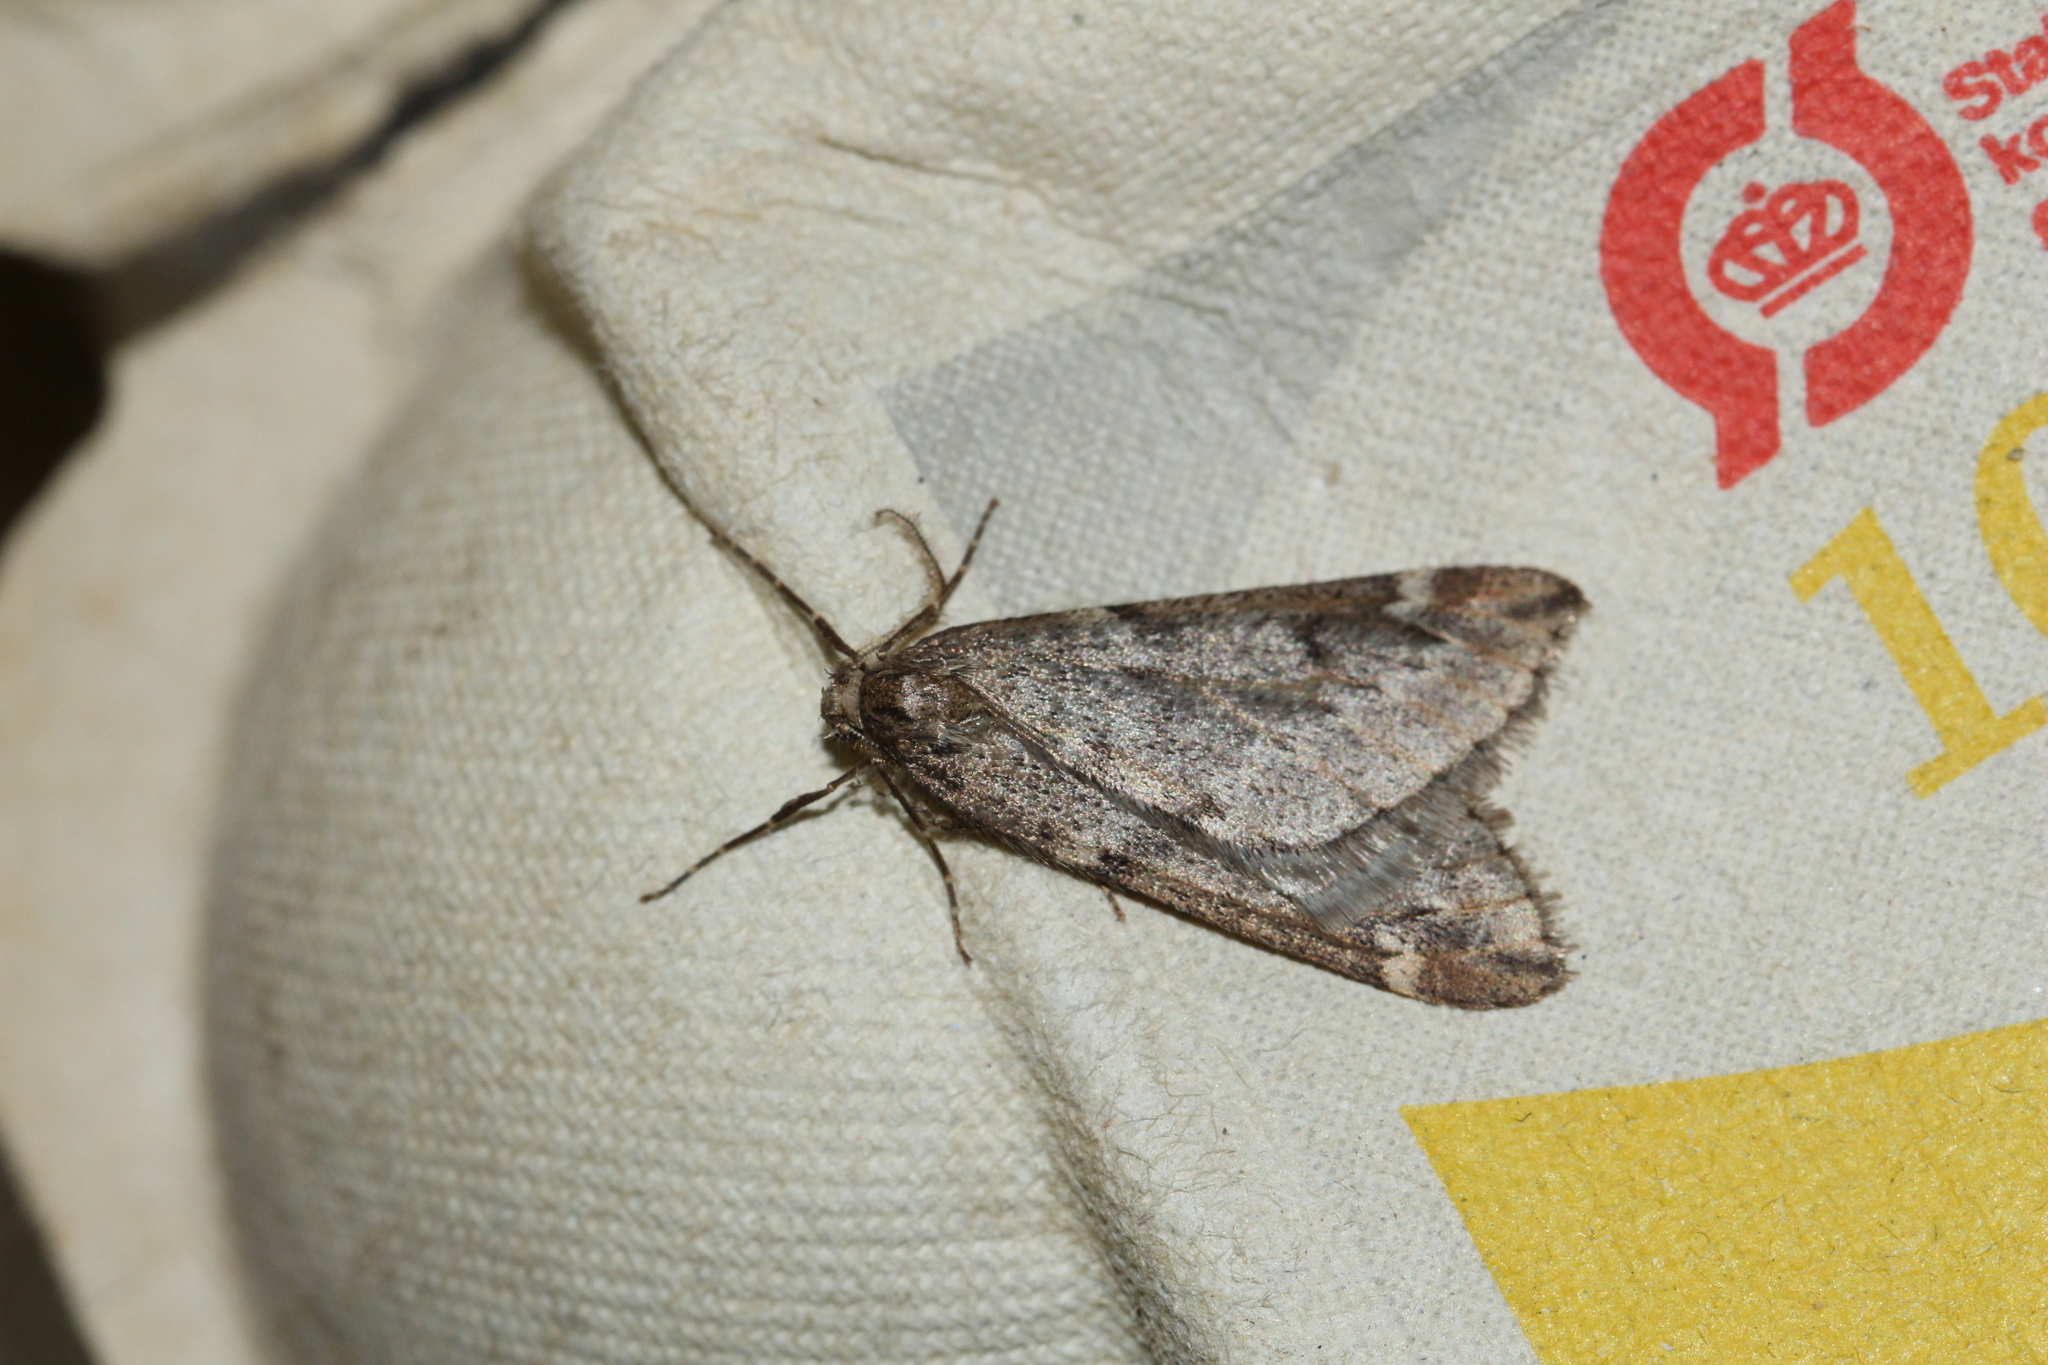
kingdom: Animalia
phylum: Arthropoda
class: Insecta
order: Lepidoptera
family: Geometridae
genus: Alsophila
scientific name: Alsophila aescularia
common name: March moth
